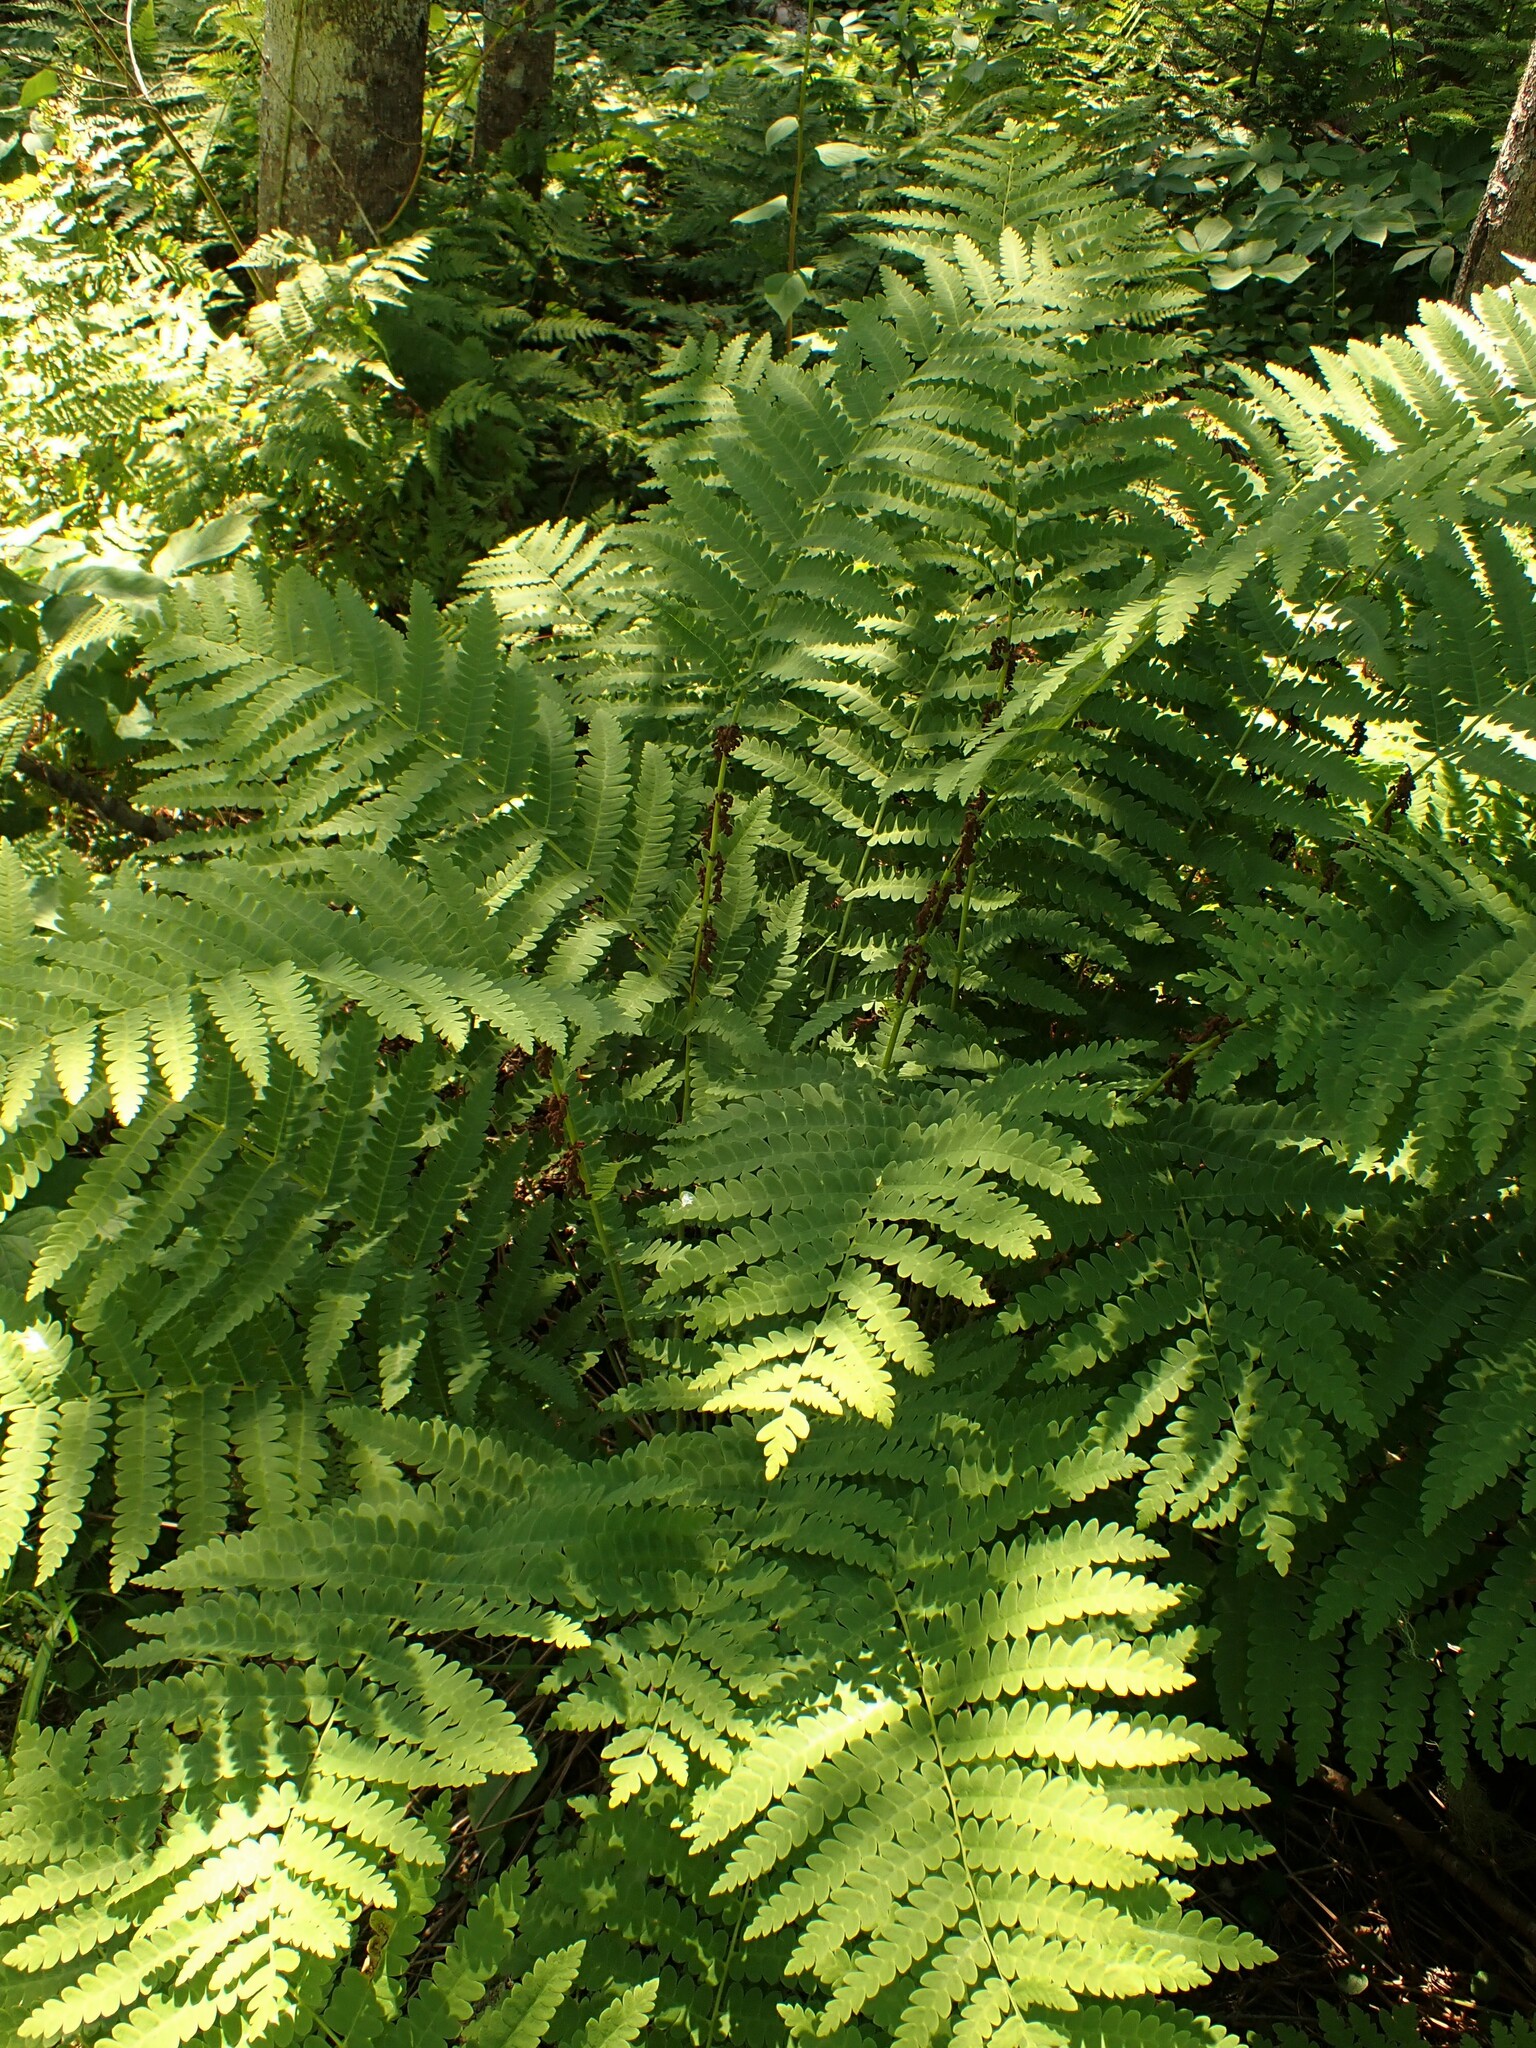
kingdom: Plantae
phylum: Tracheophyta
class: Polypodiopsida
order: Osmundales
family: Osmundaceae
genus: Claytosmunda
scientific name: Claytosmunda claytoniana
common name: Clayton's fern
